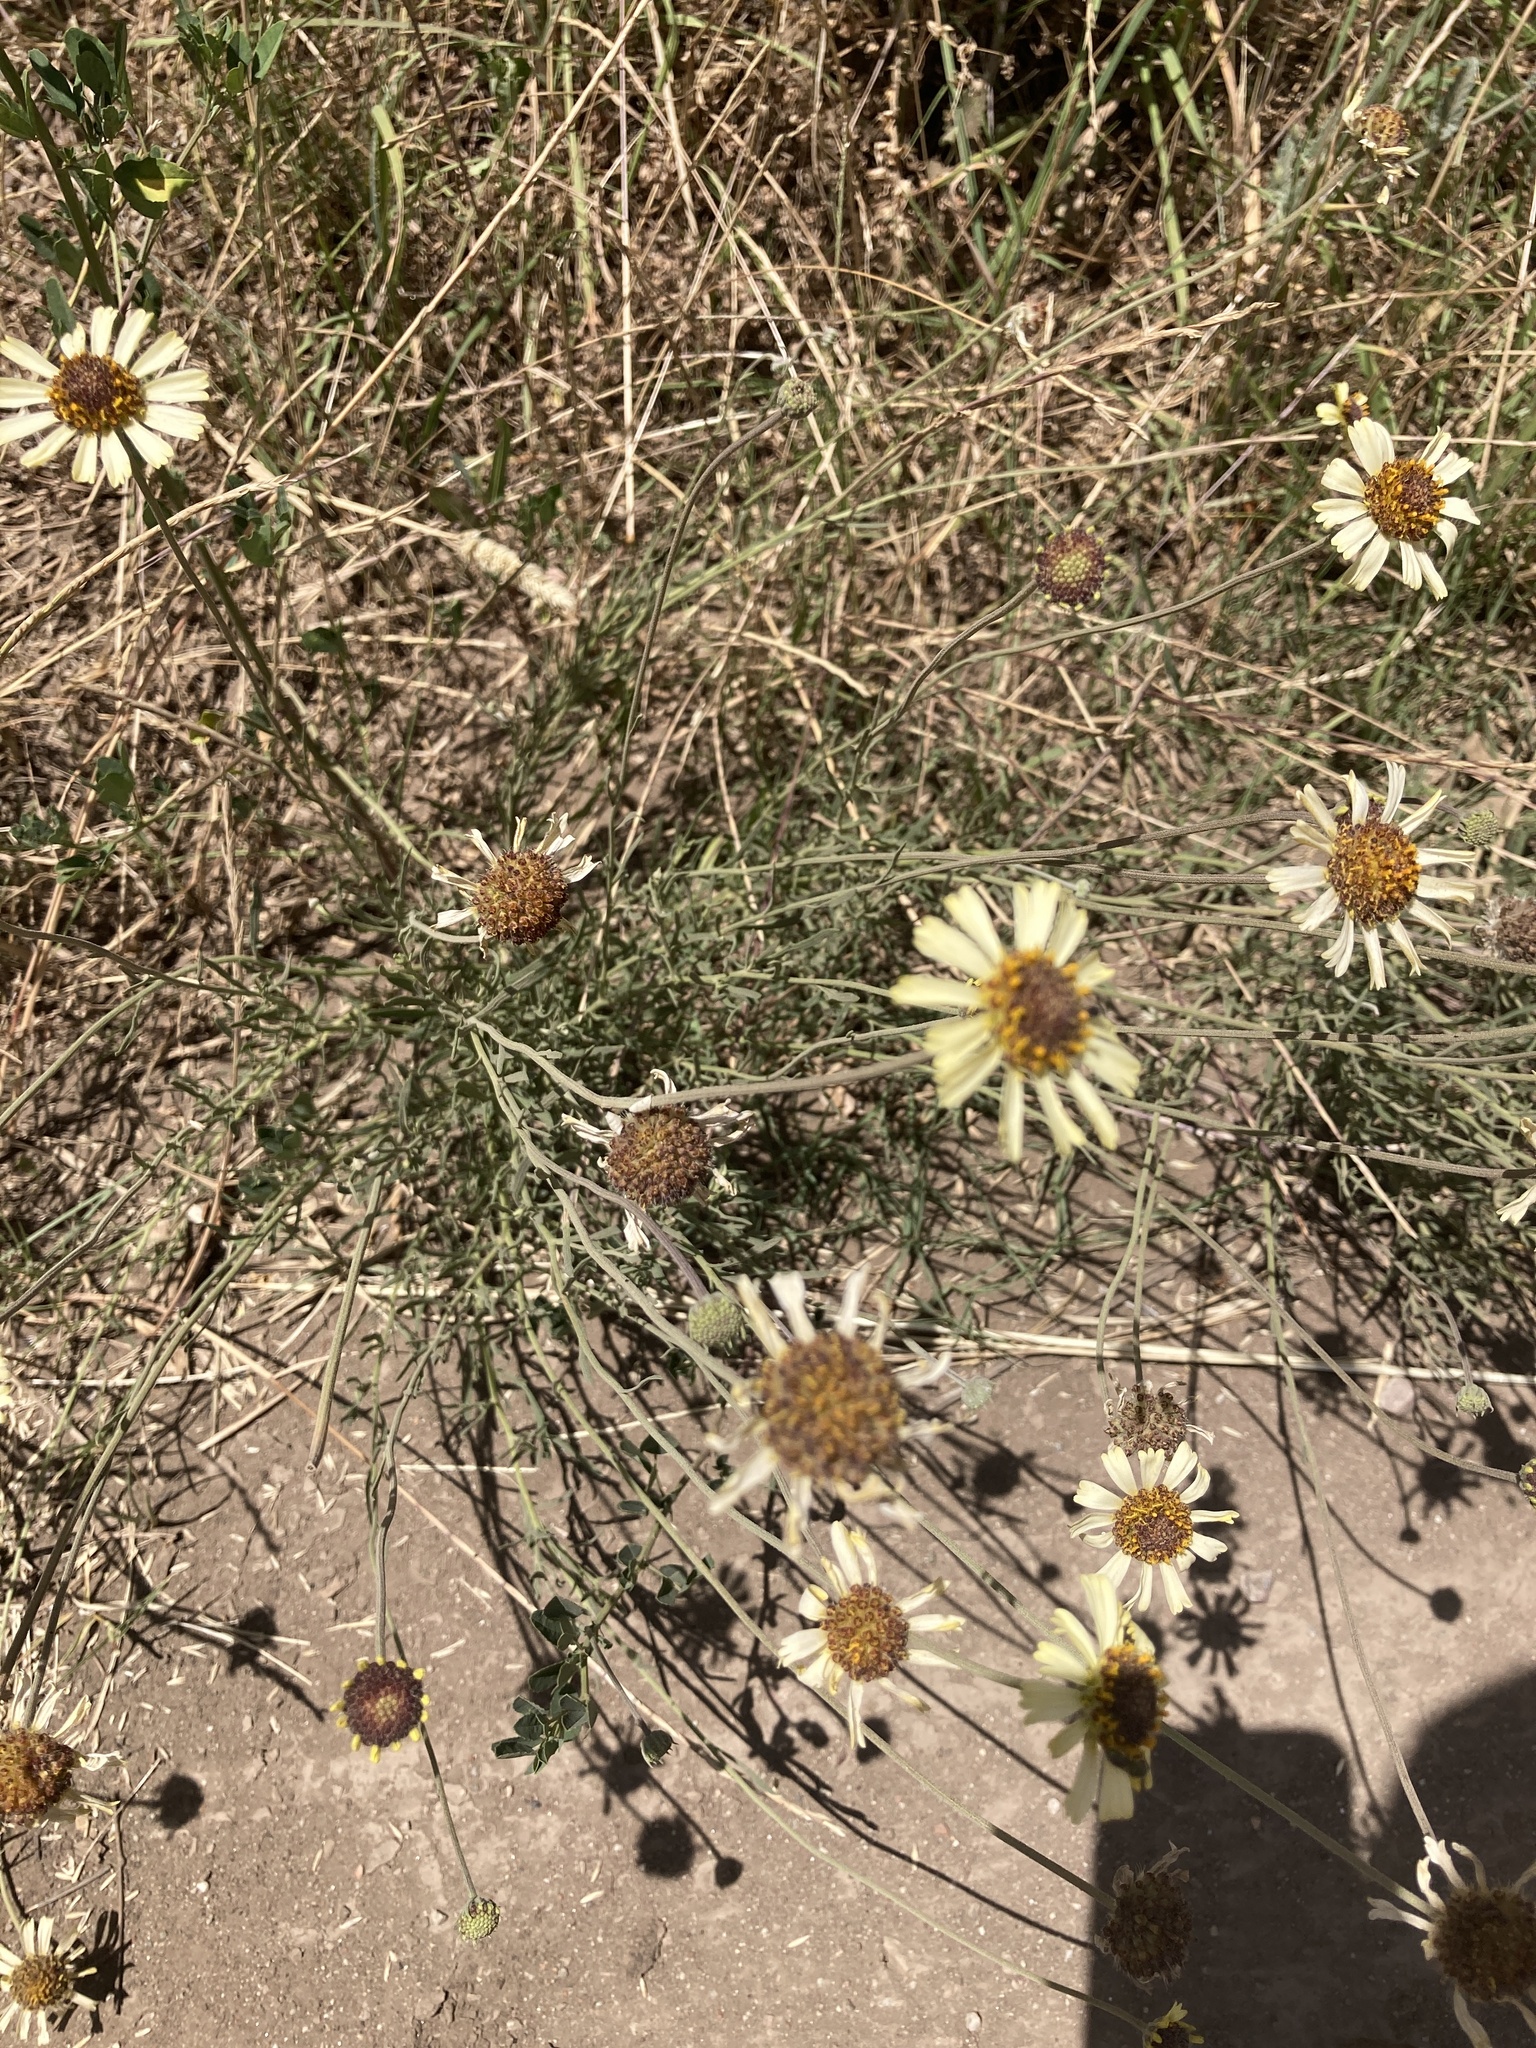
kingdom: Plantae
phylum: Tracheophyta
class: Magnoliopsida
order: Asterales
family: Asteraceae
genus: Helenium
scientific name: Helenium uniflorum
